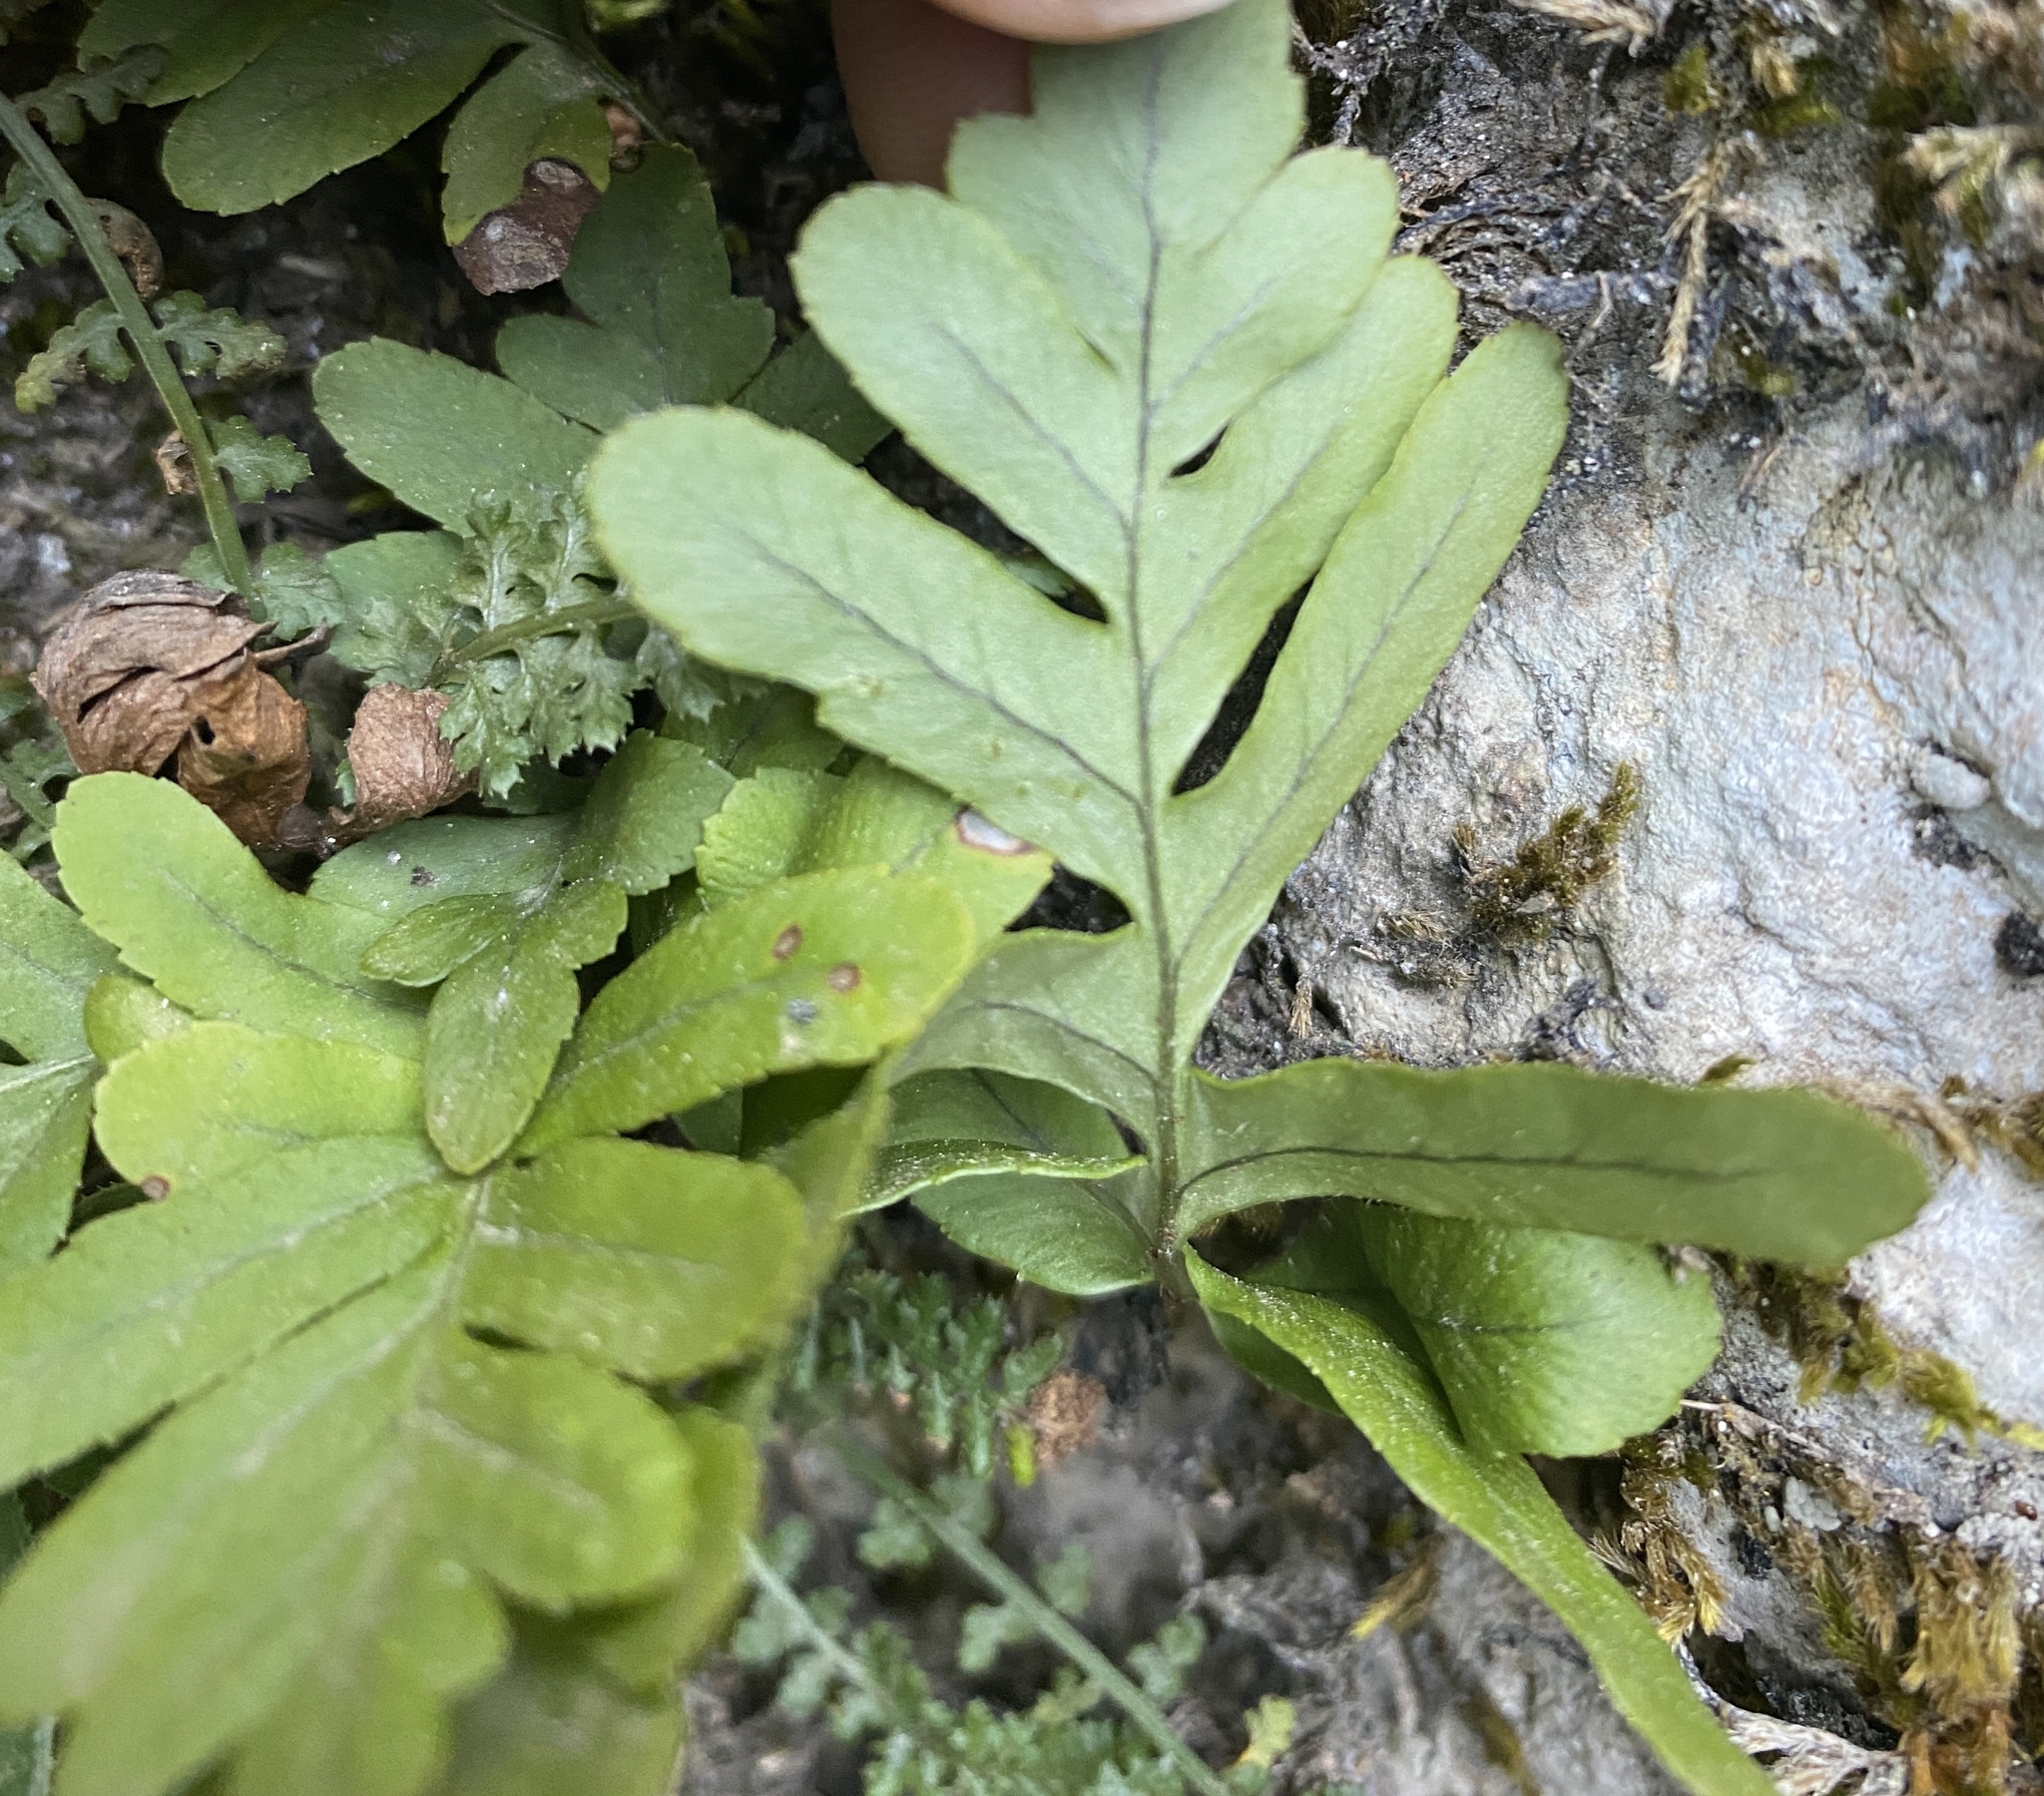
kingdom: Plantae
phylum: Tracheophyta
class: Polypodiopsida
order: Polypodiales
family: Polypodiaceae
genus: Polypodium
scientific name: Polypodium cambricum
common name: Southern polypody
